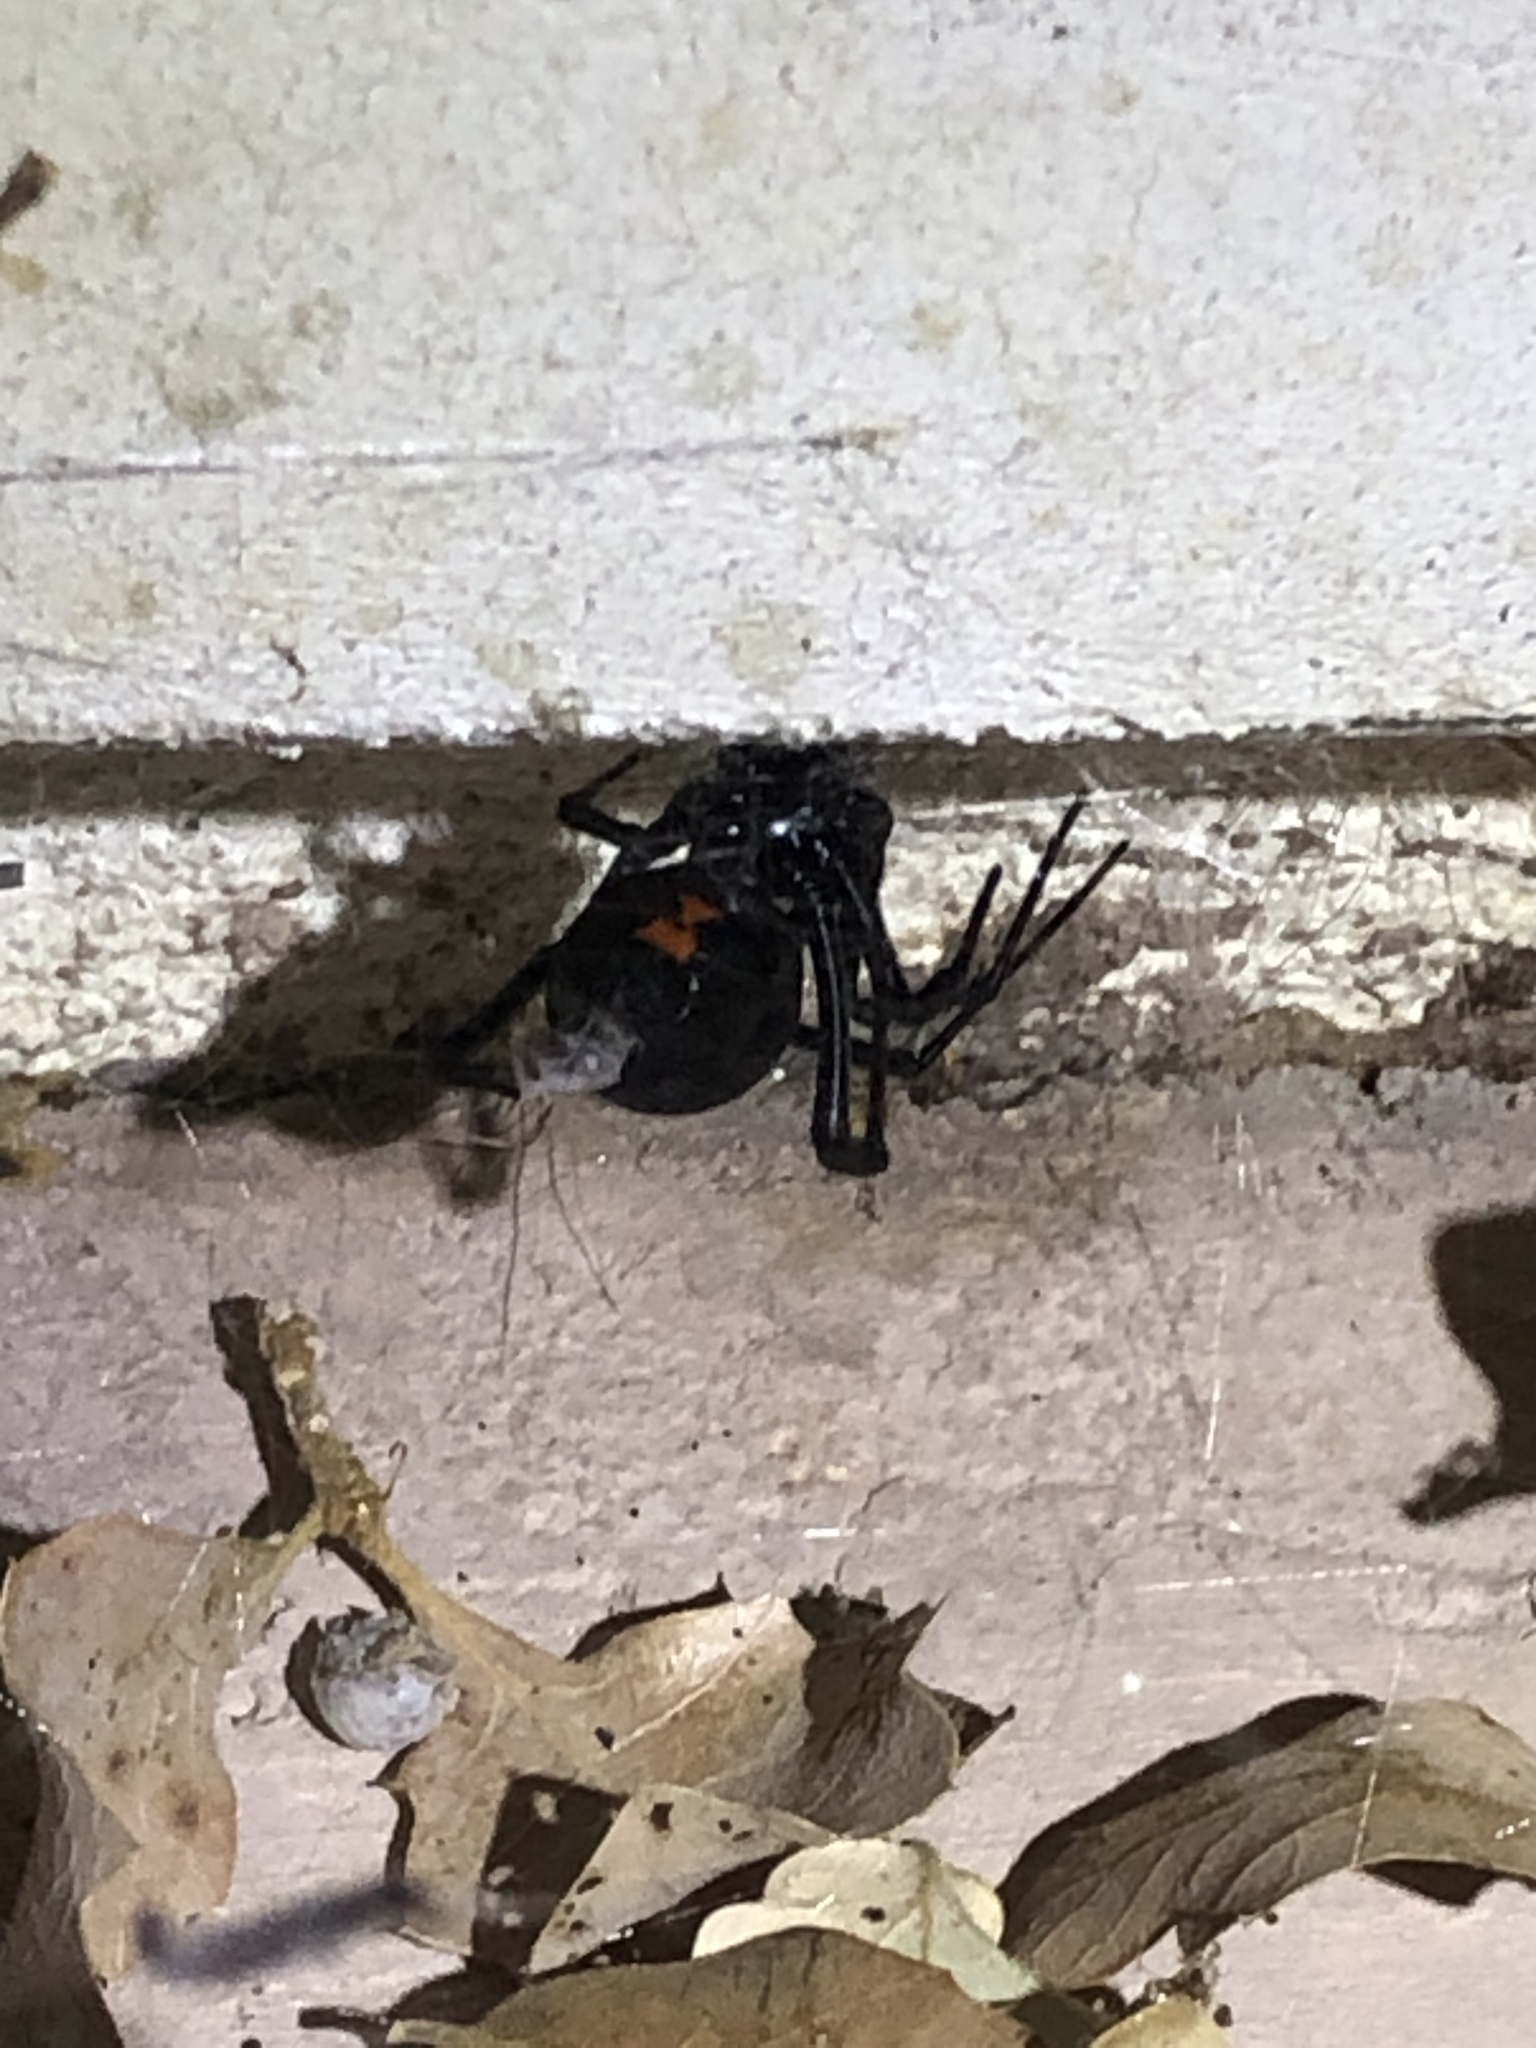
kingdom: Animalia
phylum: Arthropoda
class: Arachnida
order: Araneae
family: Theridiidae
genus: Latrodectus
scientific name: Latrodectus hesperus
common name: Western black widow
